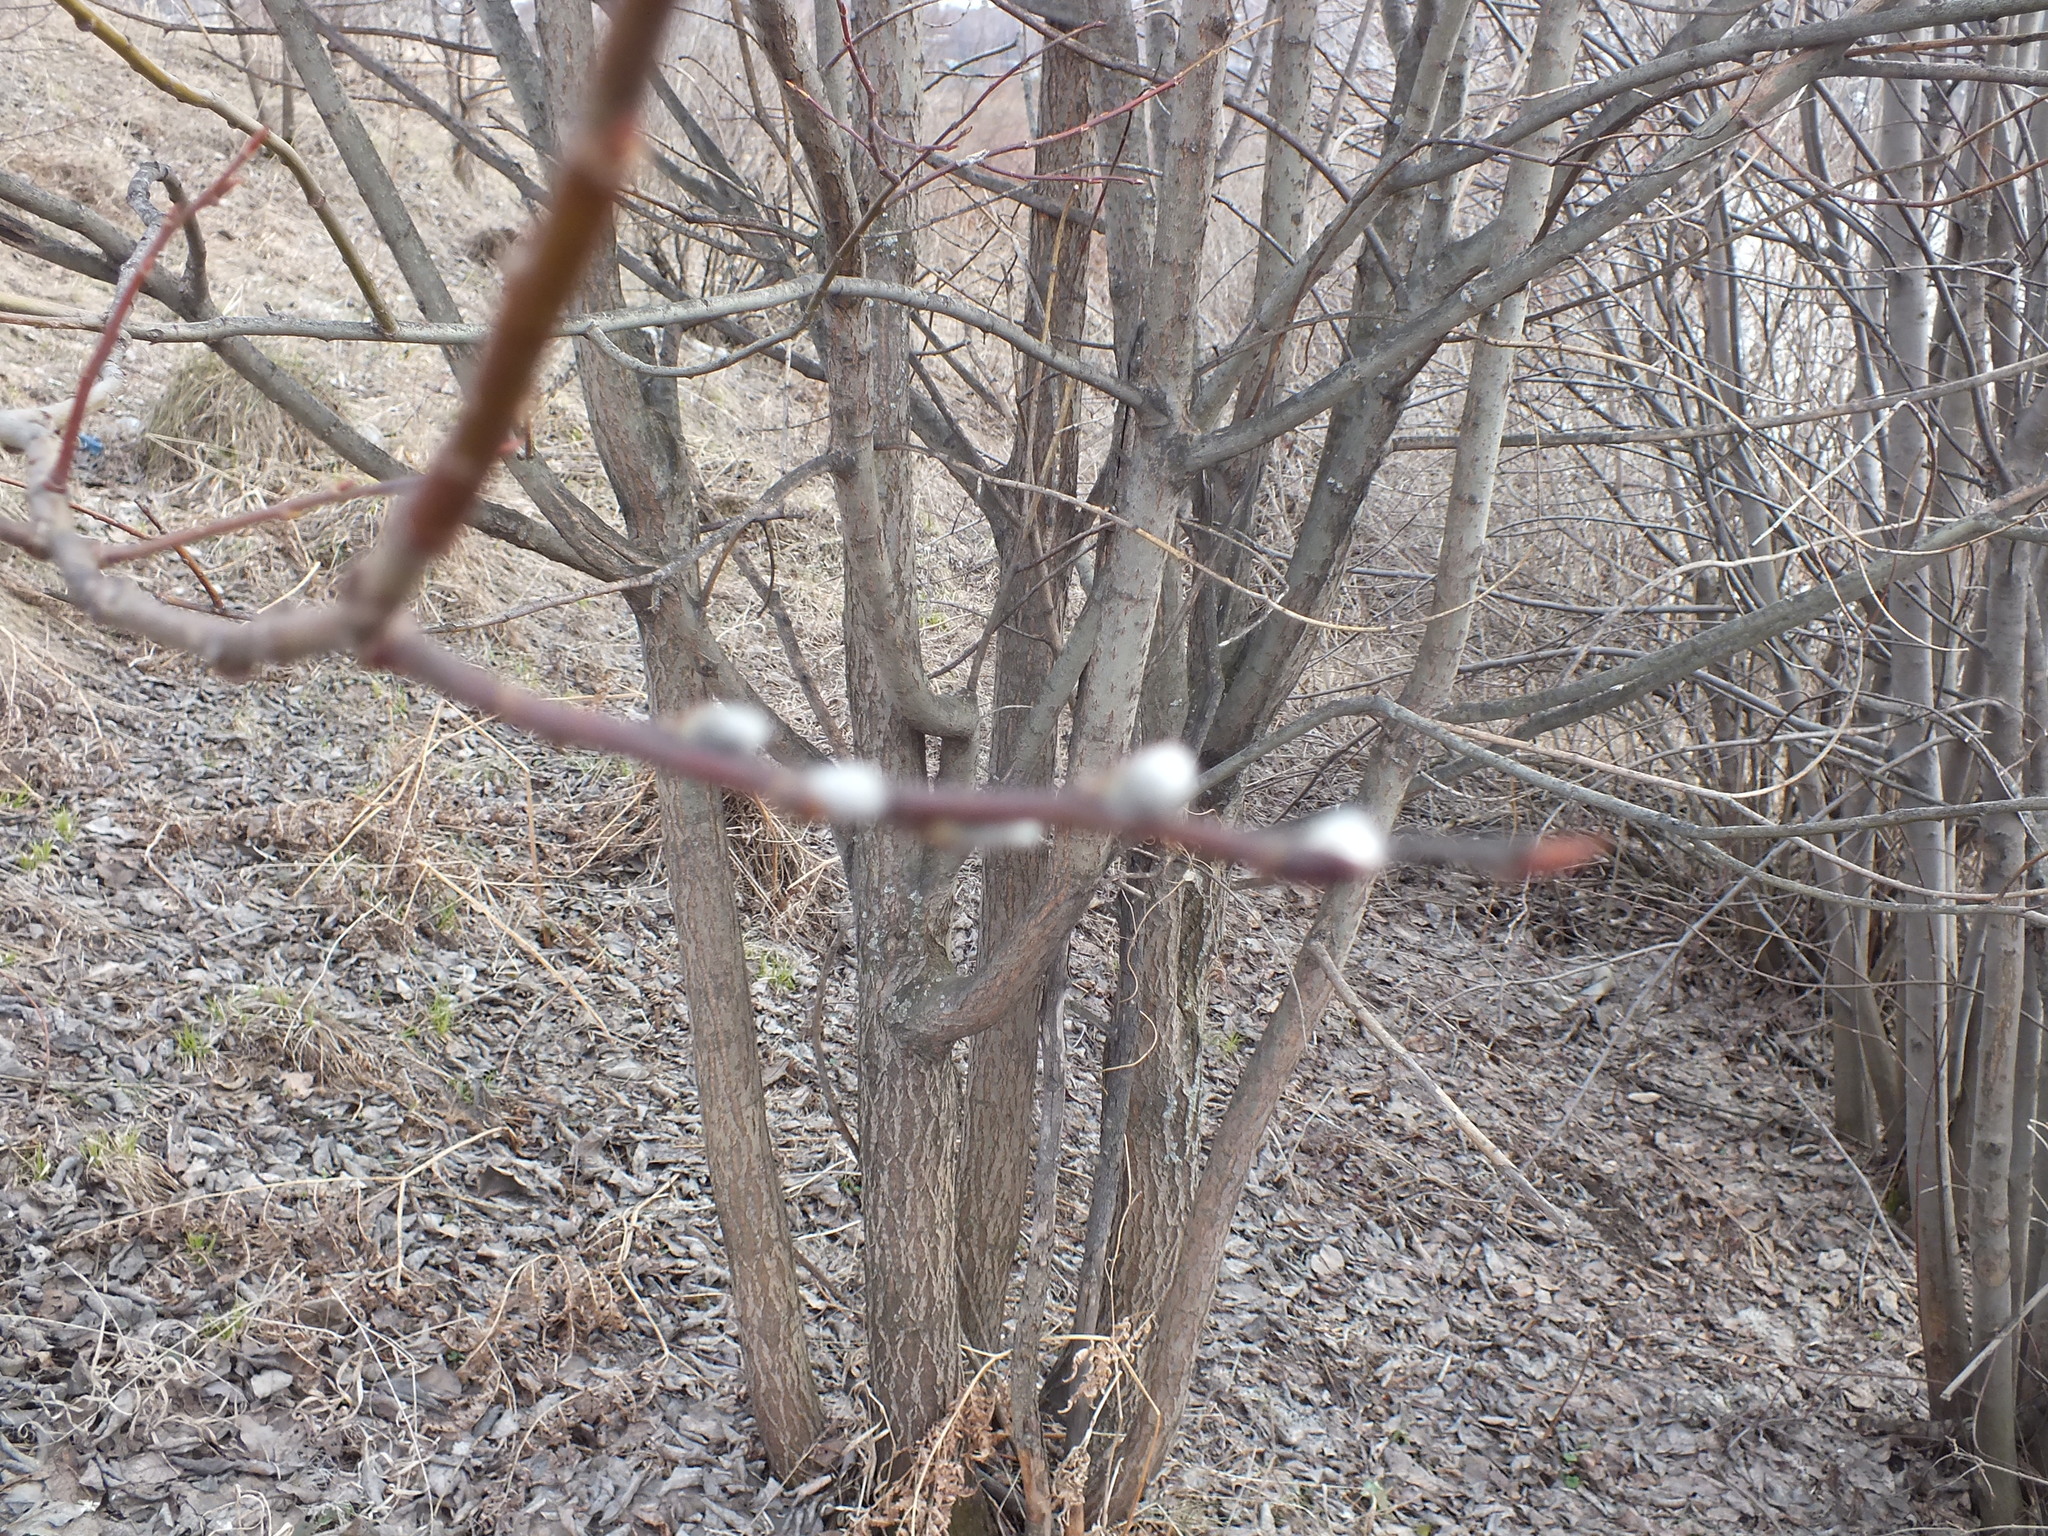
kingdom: Plantae
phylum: Tracheophyta
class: Magnoliopsida
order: Malpighiales
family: Salicaceae
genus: Salix
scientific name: Salix caprea
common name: Goat willow
